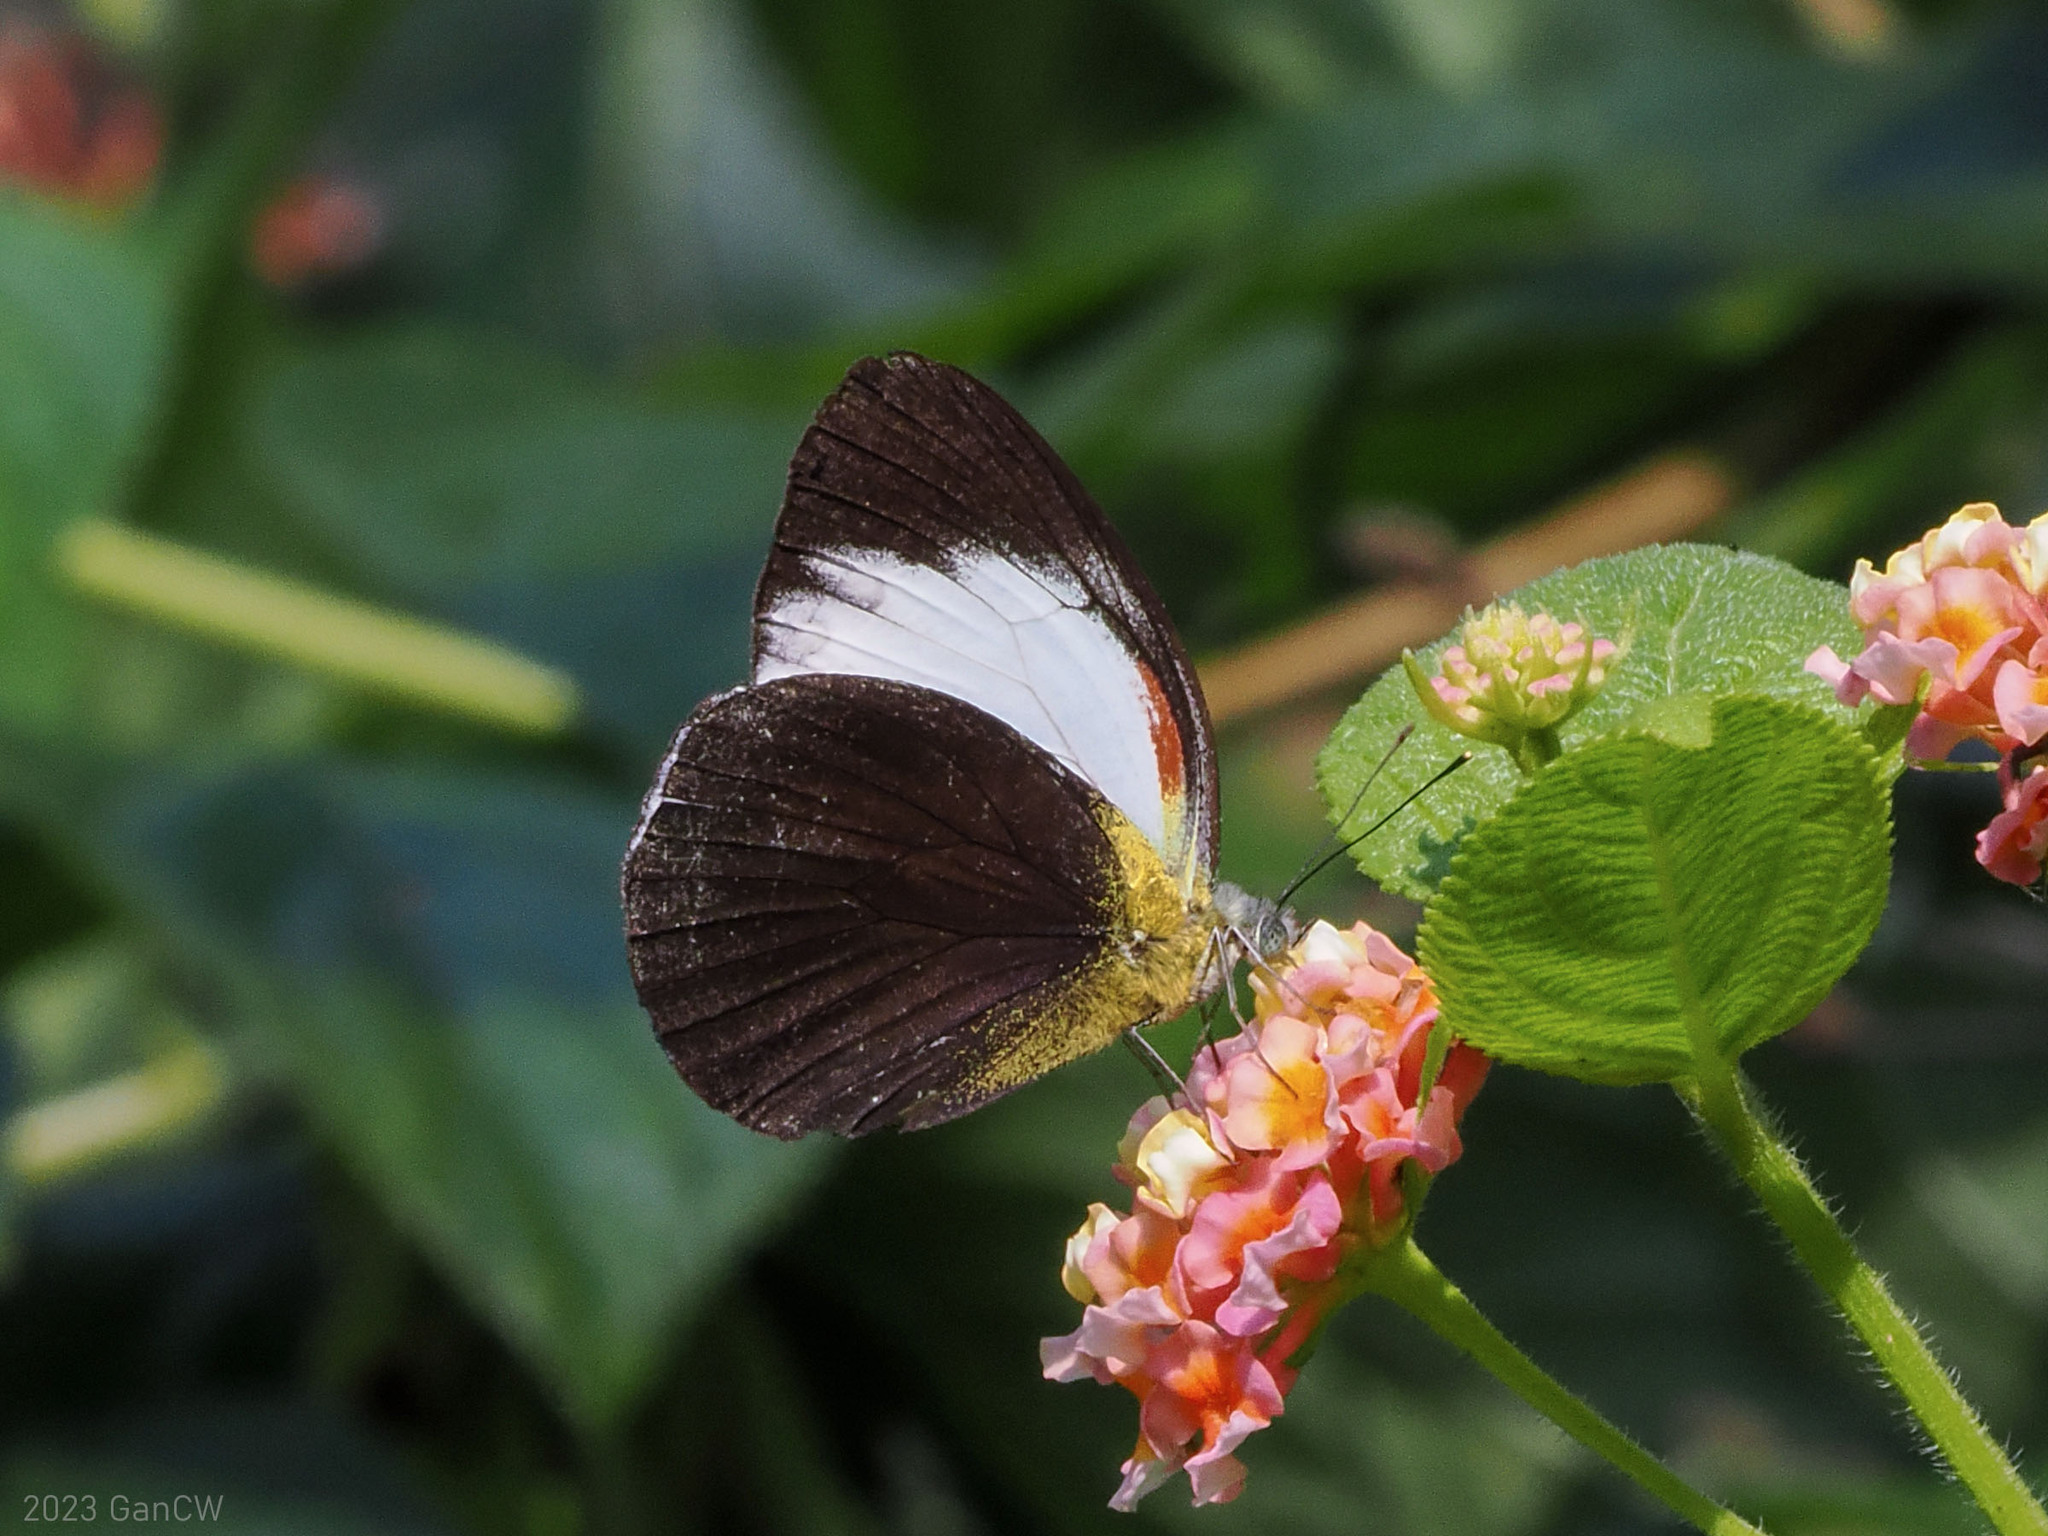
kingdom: Animalia
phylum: Arthropoda
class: Insecta
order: Lepidoptera
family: Pieridae
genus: Cepora
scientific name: Cepora abnormis
